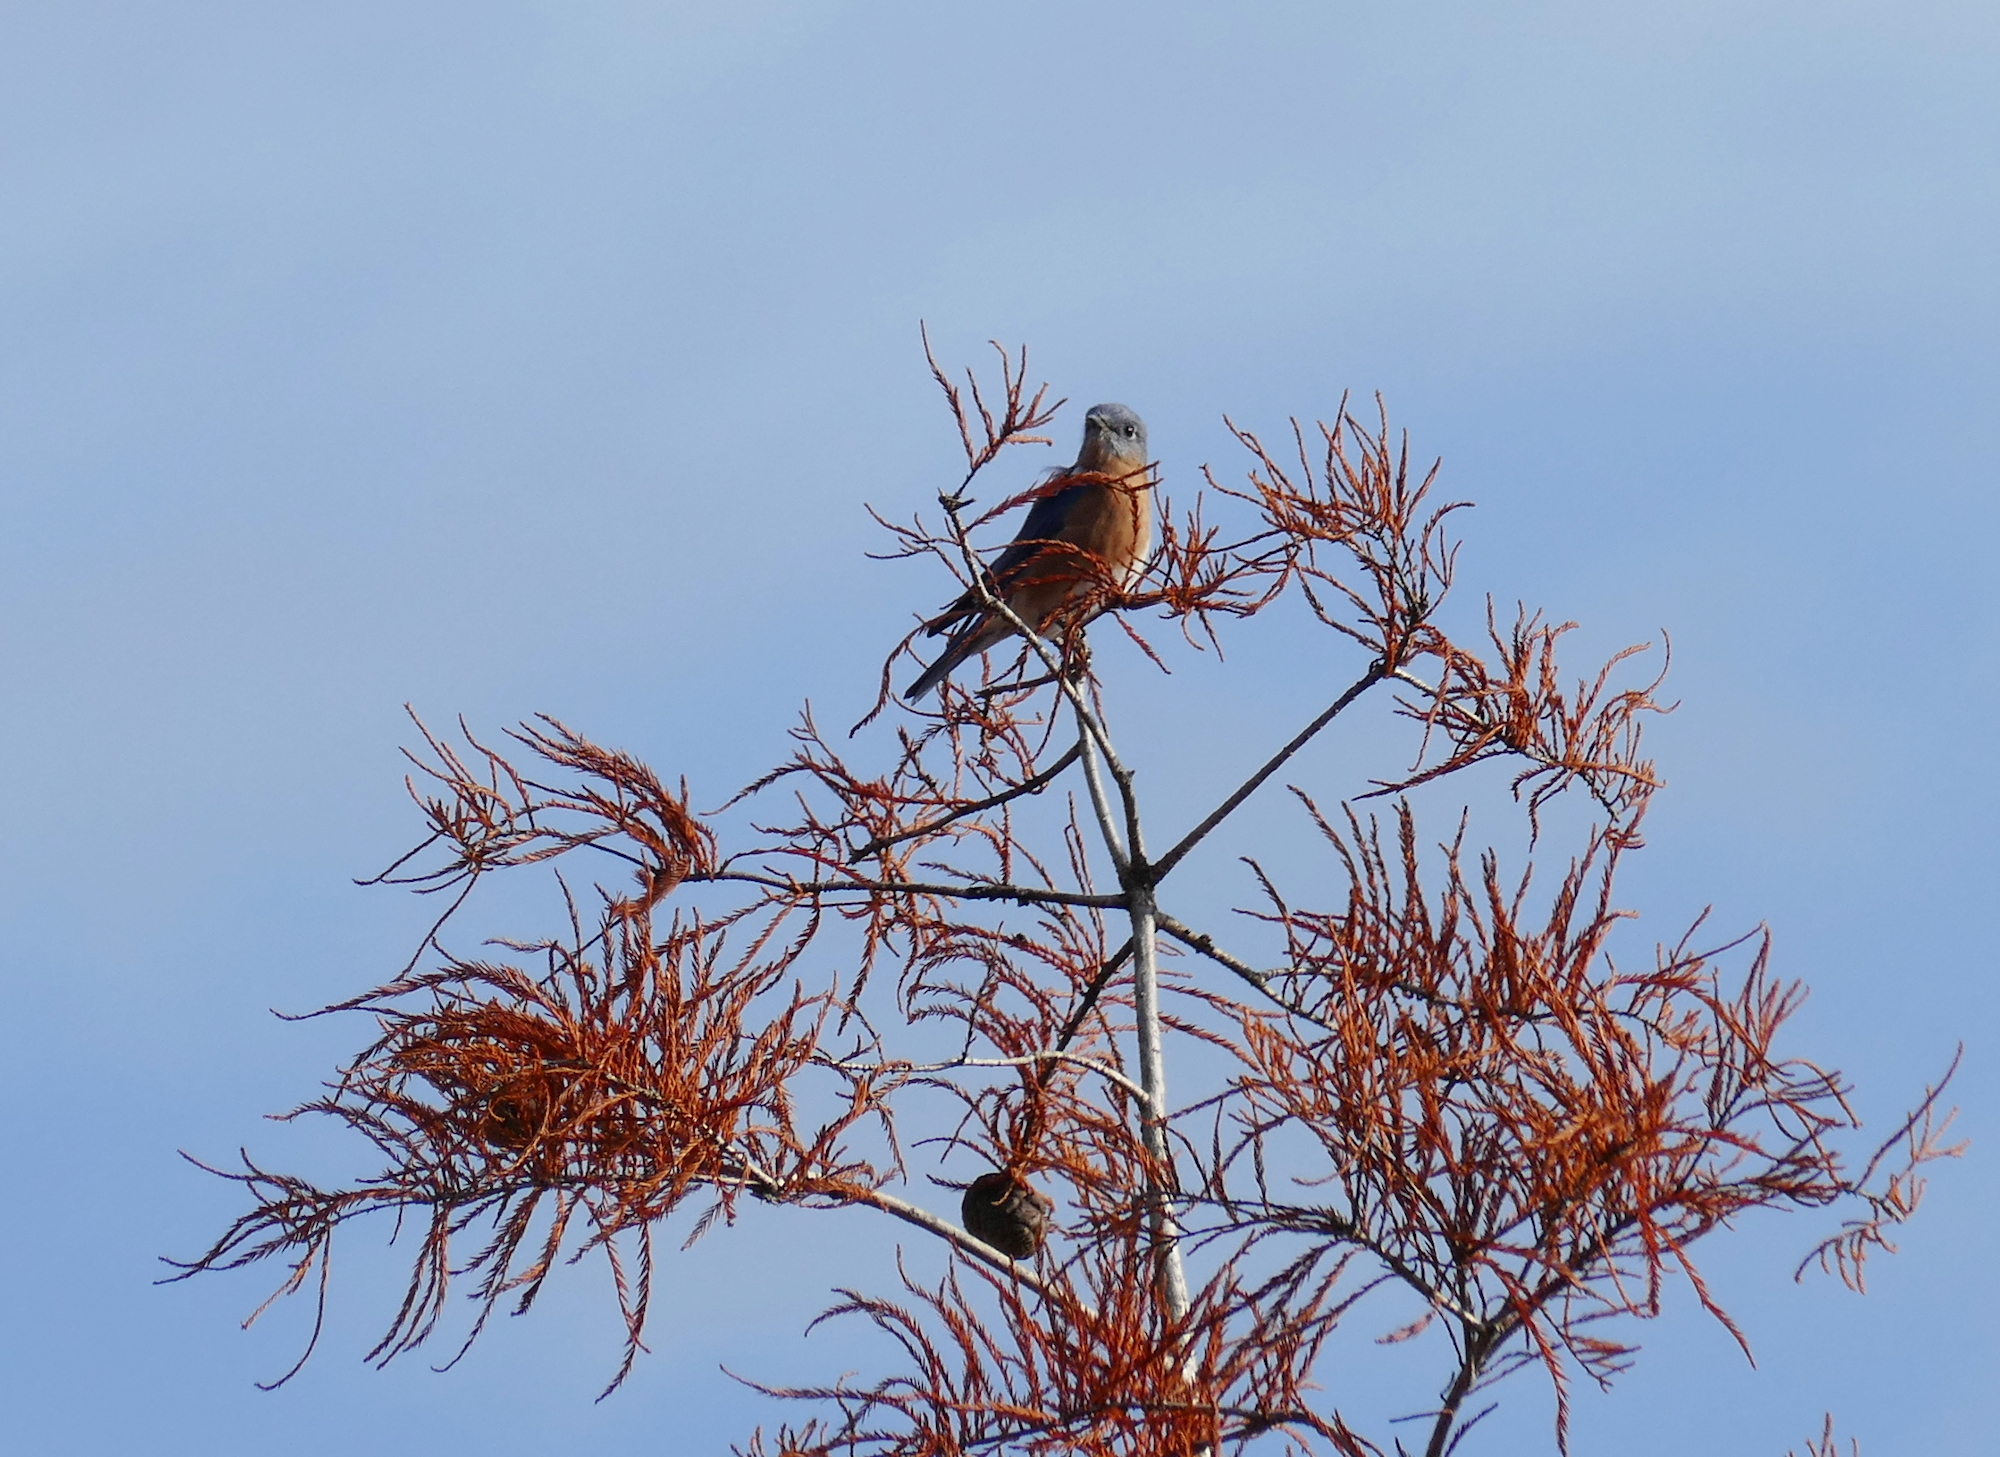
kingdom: Animalia
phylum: Chordata
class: Aves
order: Passeriformes
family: Turdidae
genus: Sialia
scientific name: Sialia sialis
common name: Eastern bluebird
